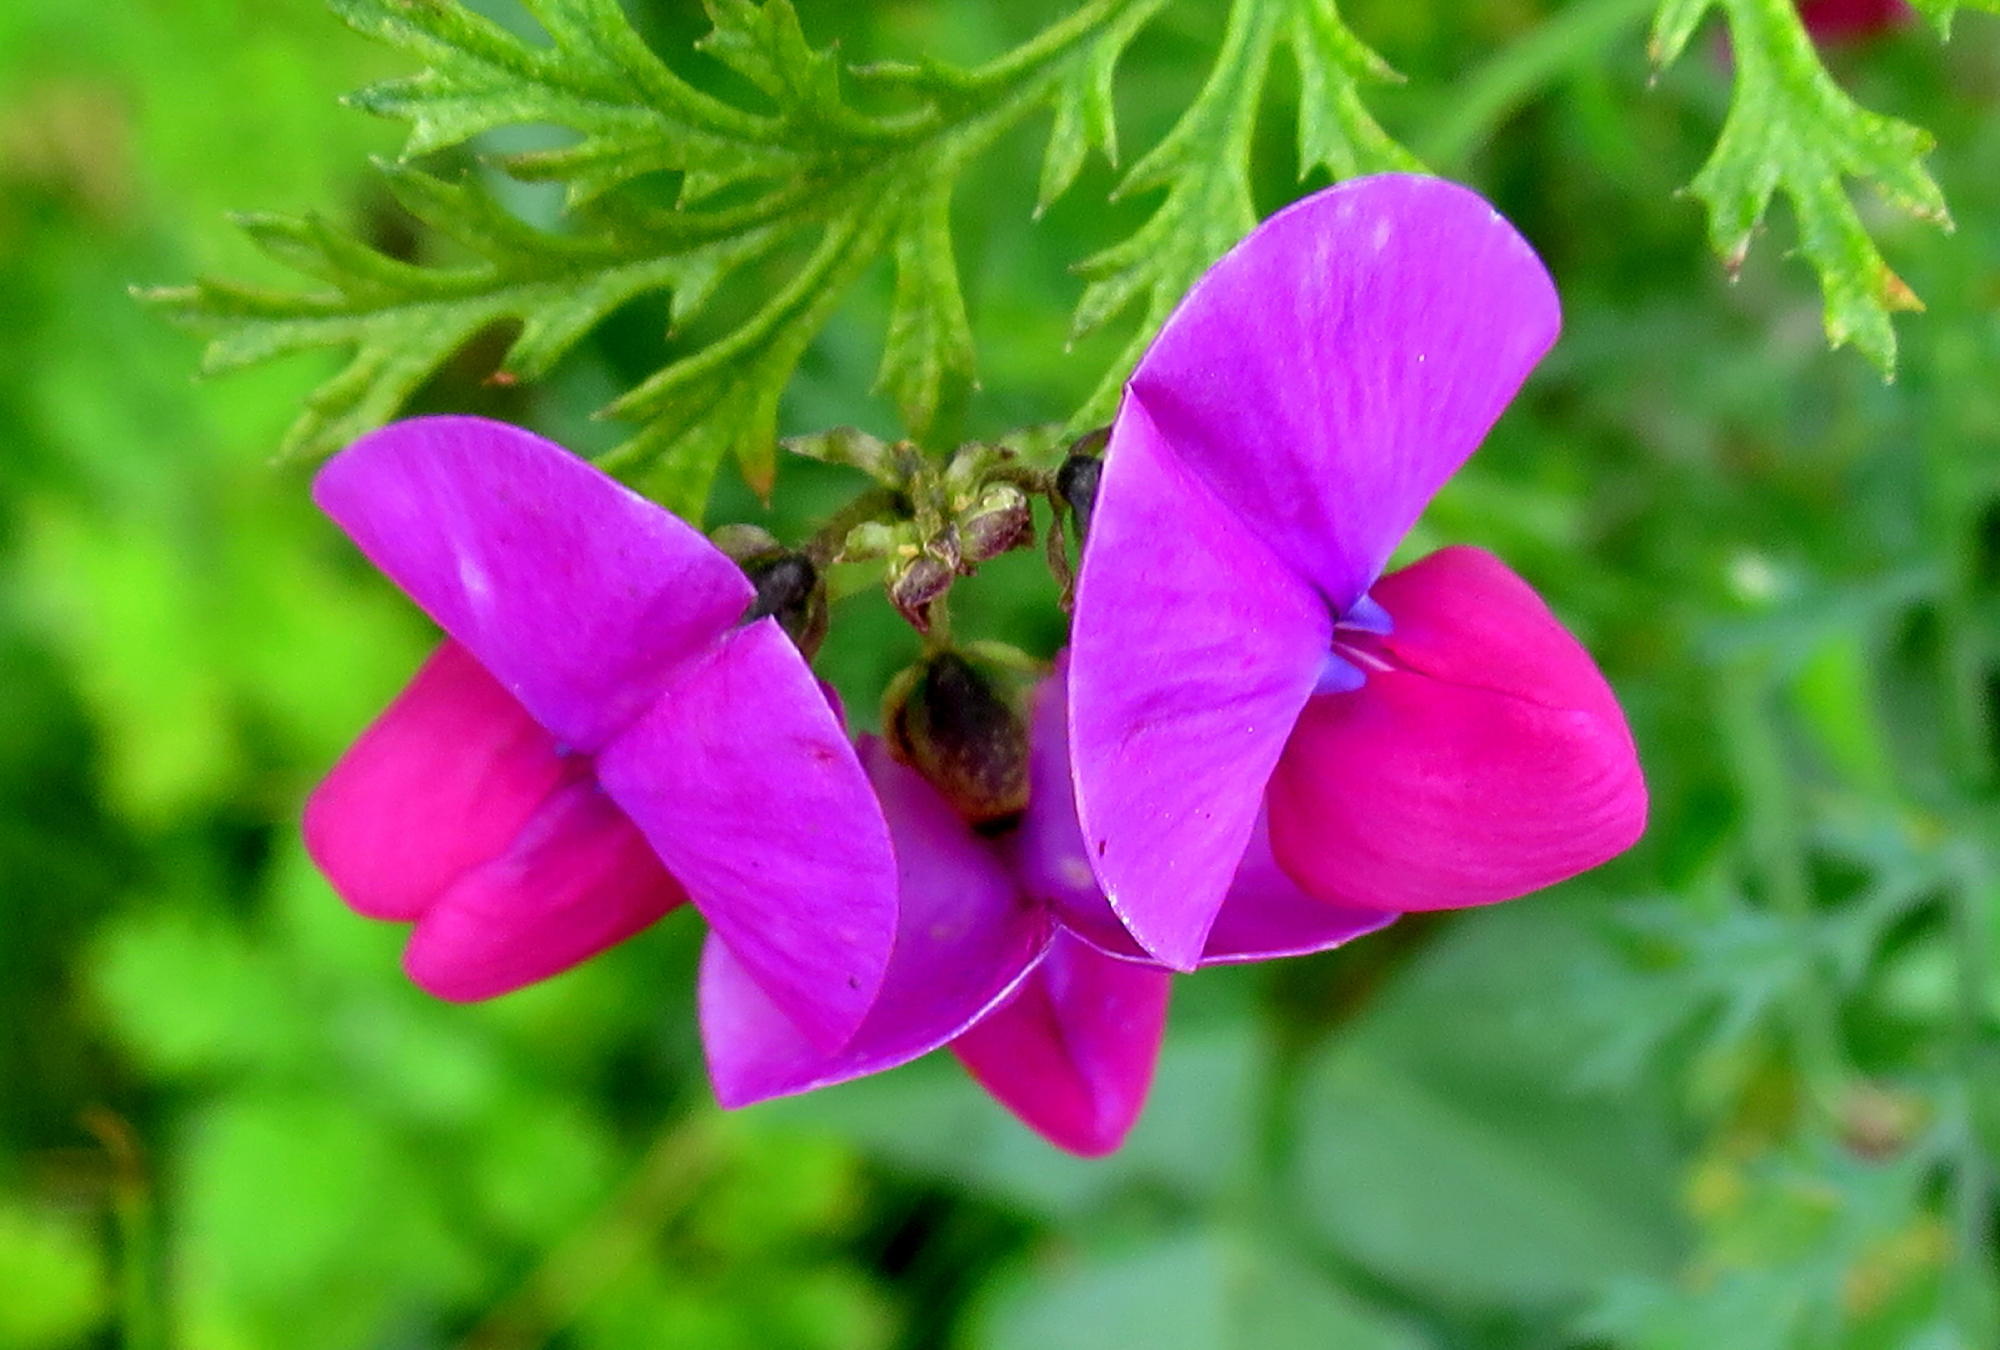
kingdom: Plantae
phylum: Tracheophyta
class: Magnoliopsida
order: Fabales
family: Fabaceae
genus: Dipogon
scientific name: Dipogon lignosus
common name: Okie bean
